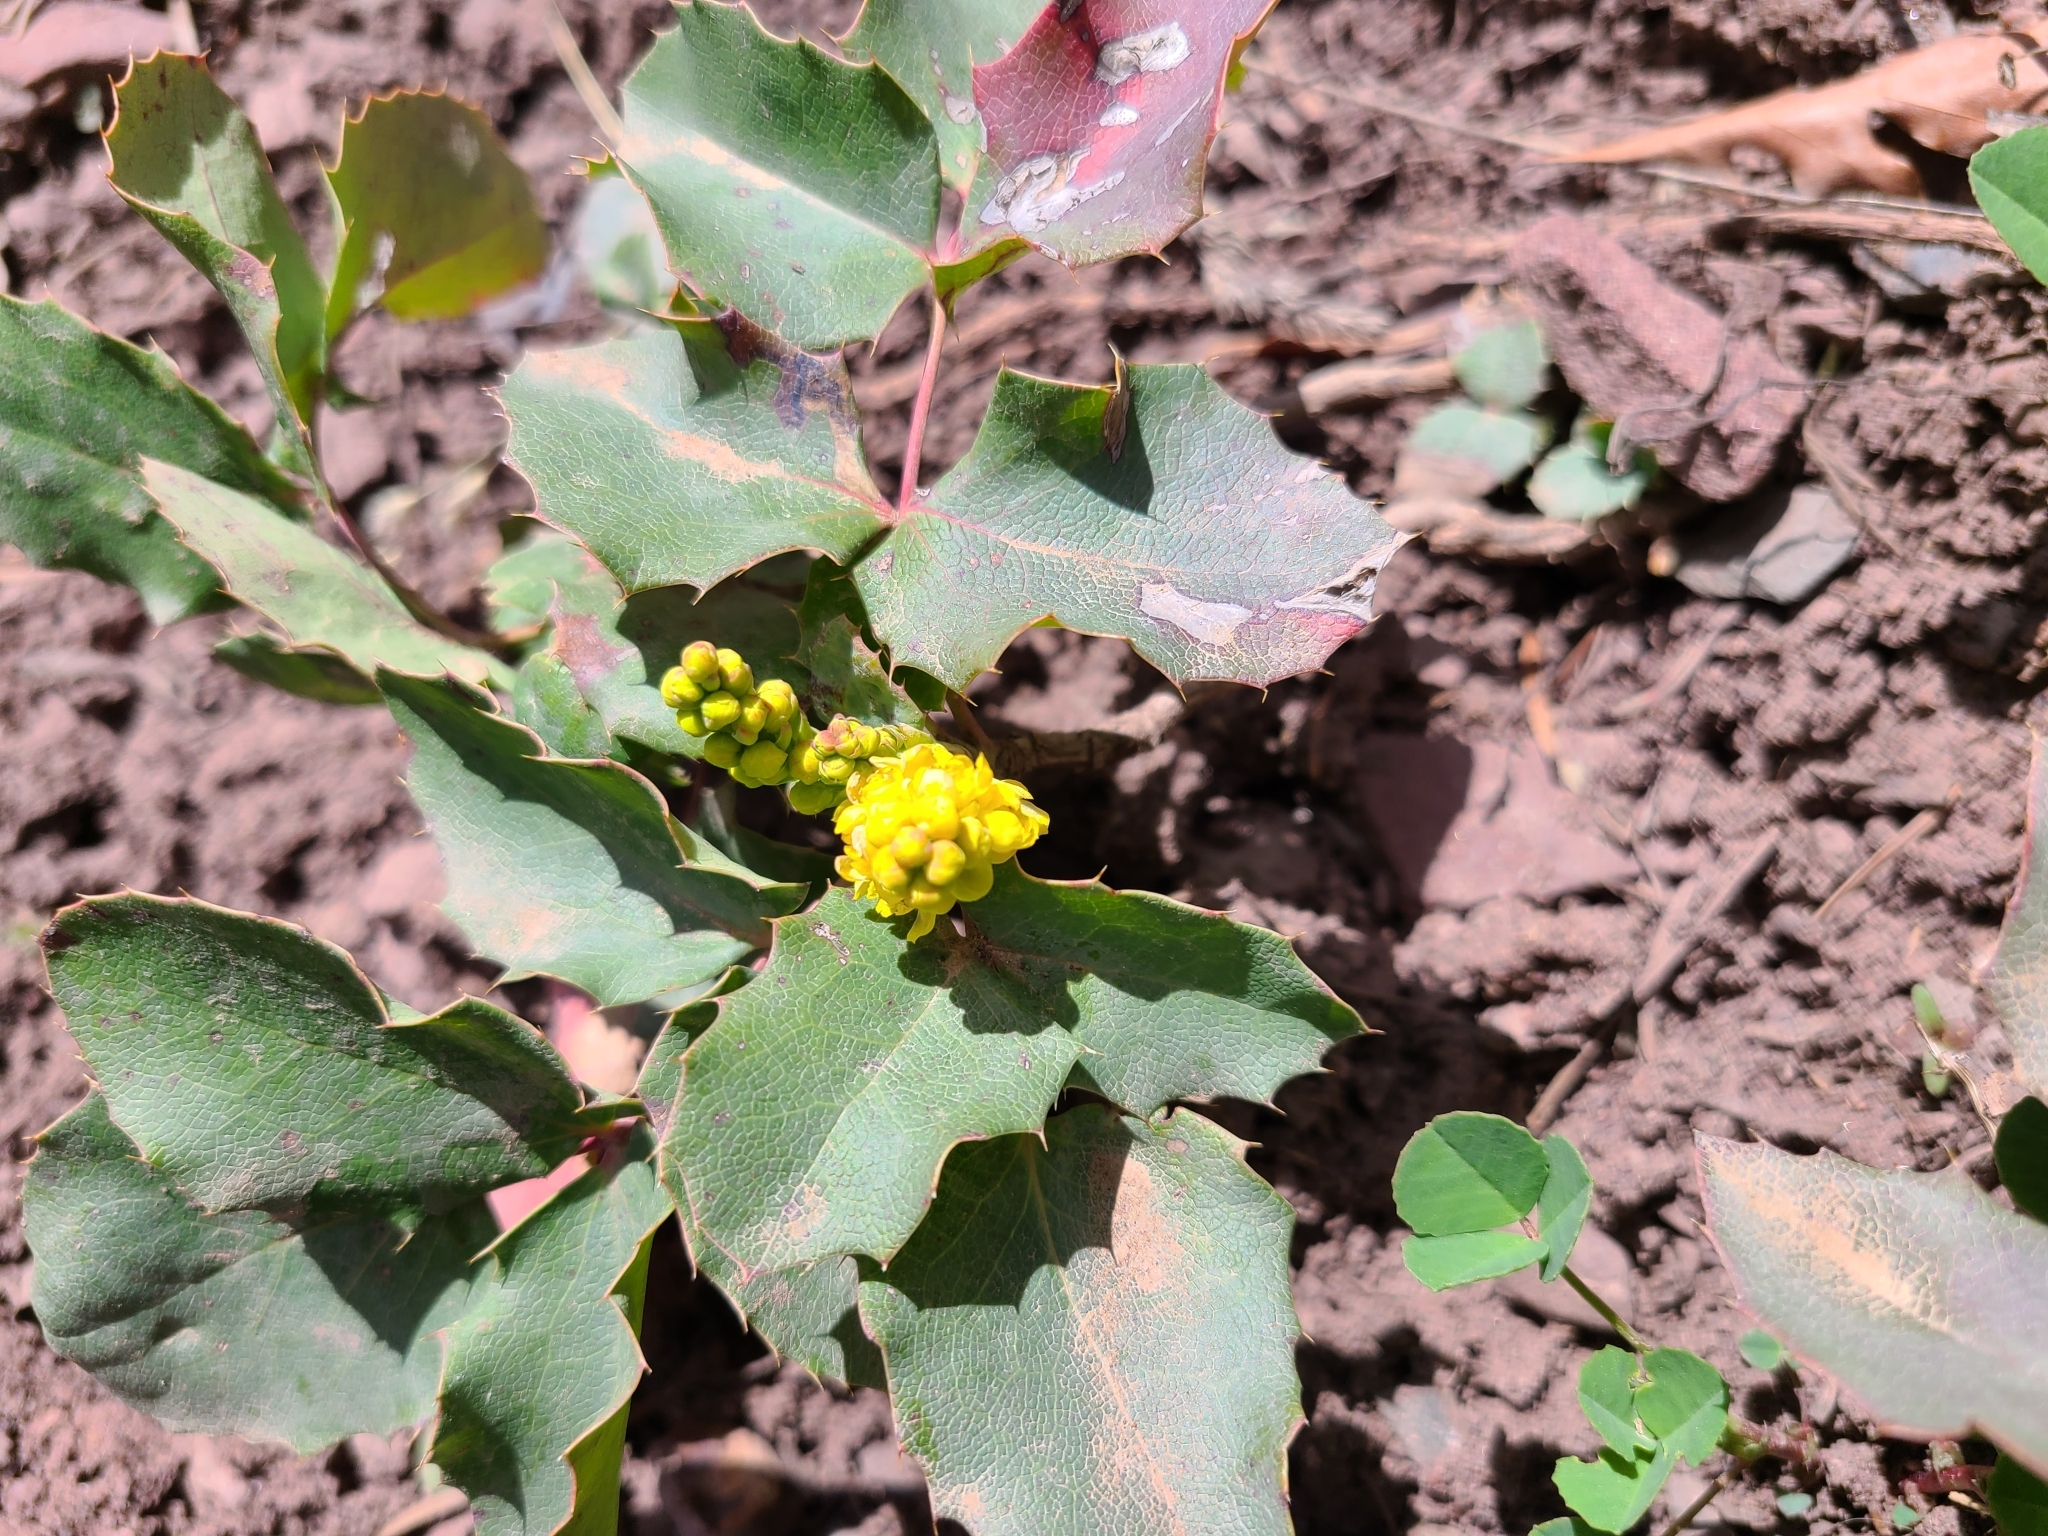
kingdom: Plantae
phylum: Tracheophyta
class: Magnoliopsida
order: Ranunculales
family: Berberidaceae
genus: Mahonia
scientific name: Mahonia repens
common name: Creeping oregon-grape
